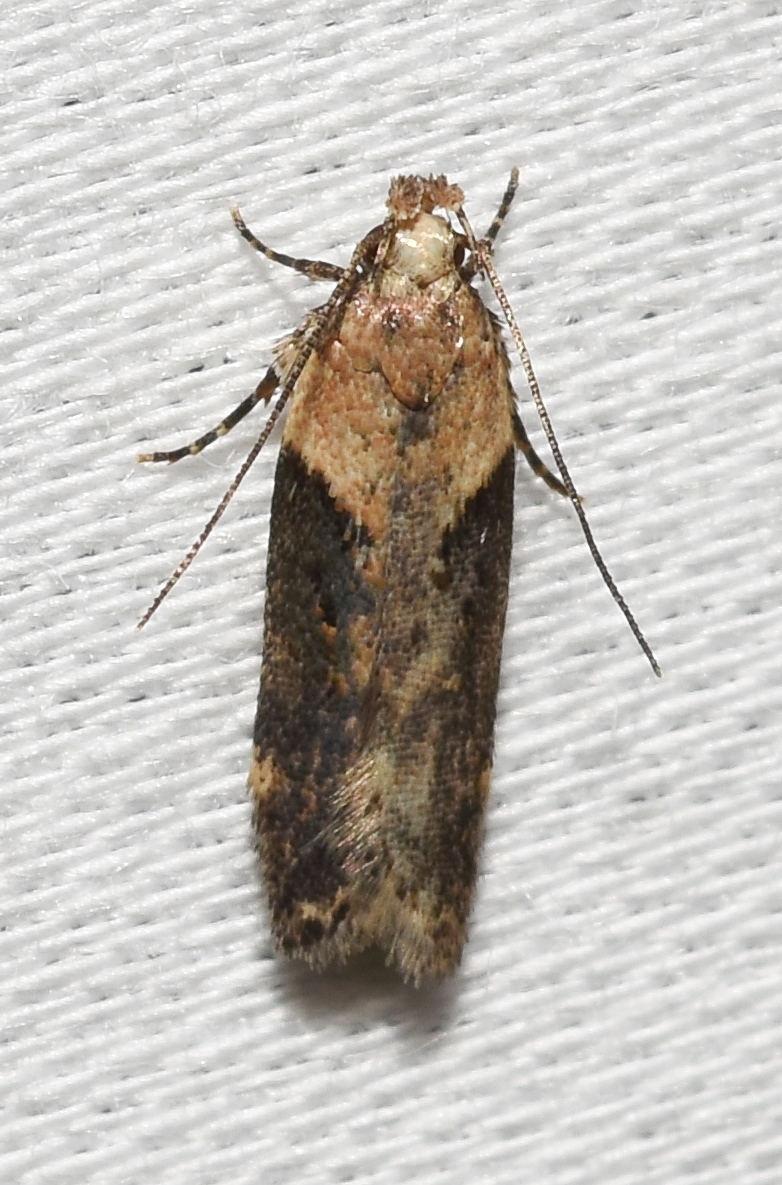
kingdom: Animalia
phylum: Arthropoda
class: Insecta
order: Lepidoptera
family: Gelechiidae
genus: Chionodes
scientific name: Chionodes mediofuscella
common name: Black-smudged chionodes moth
